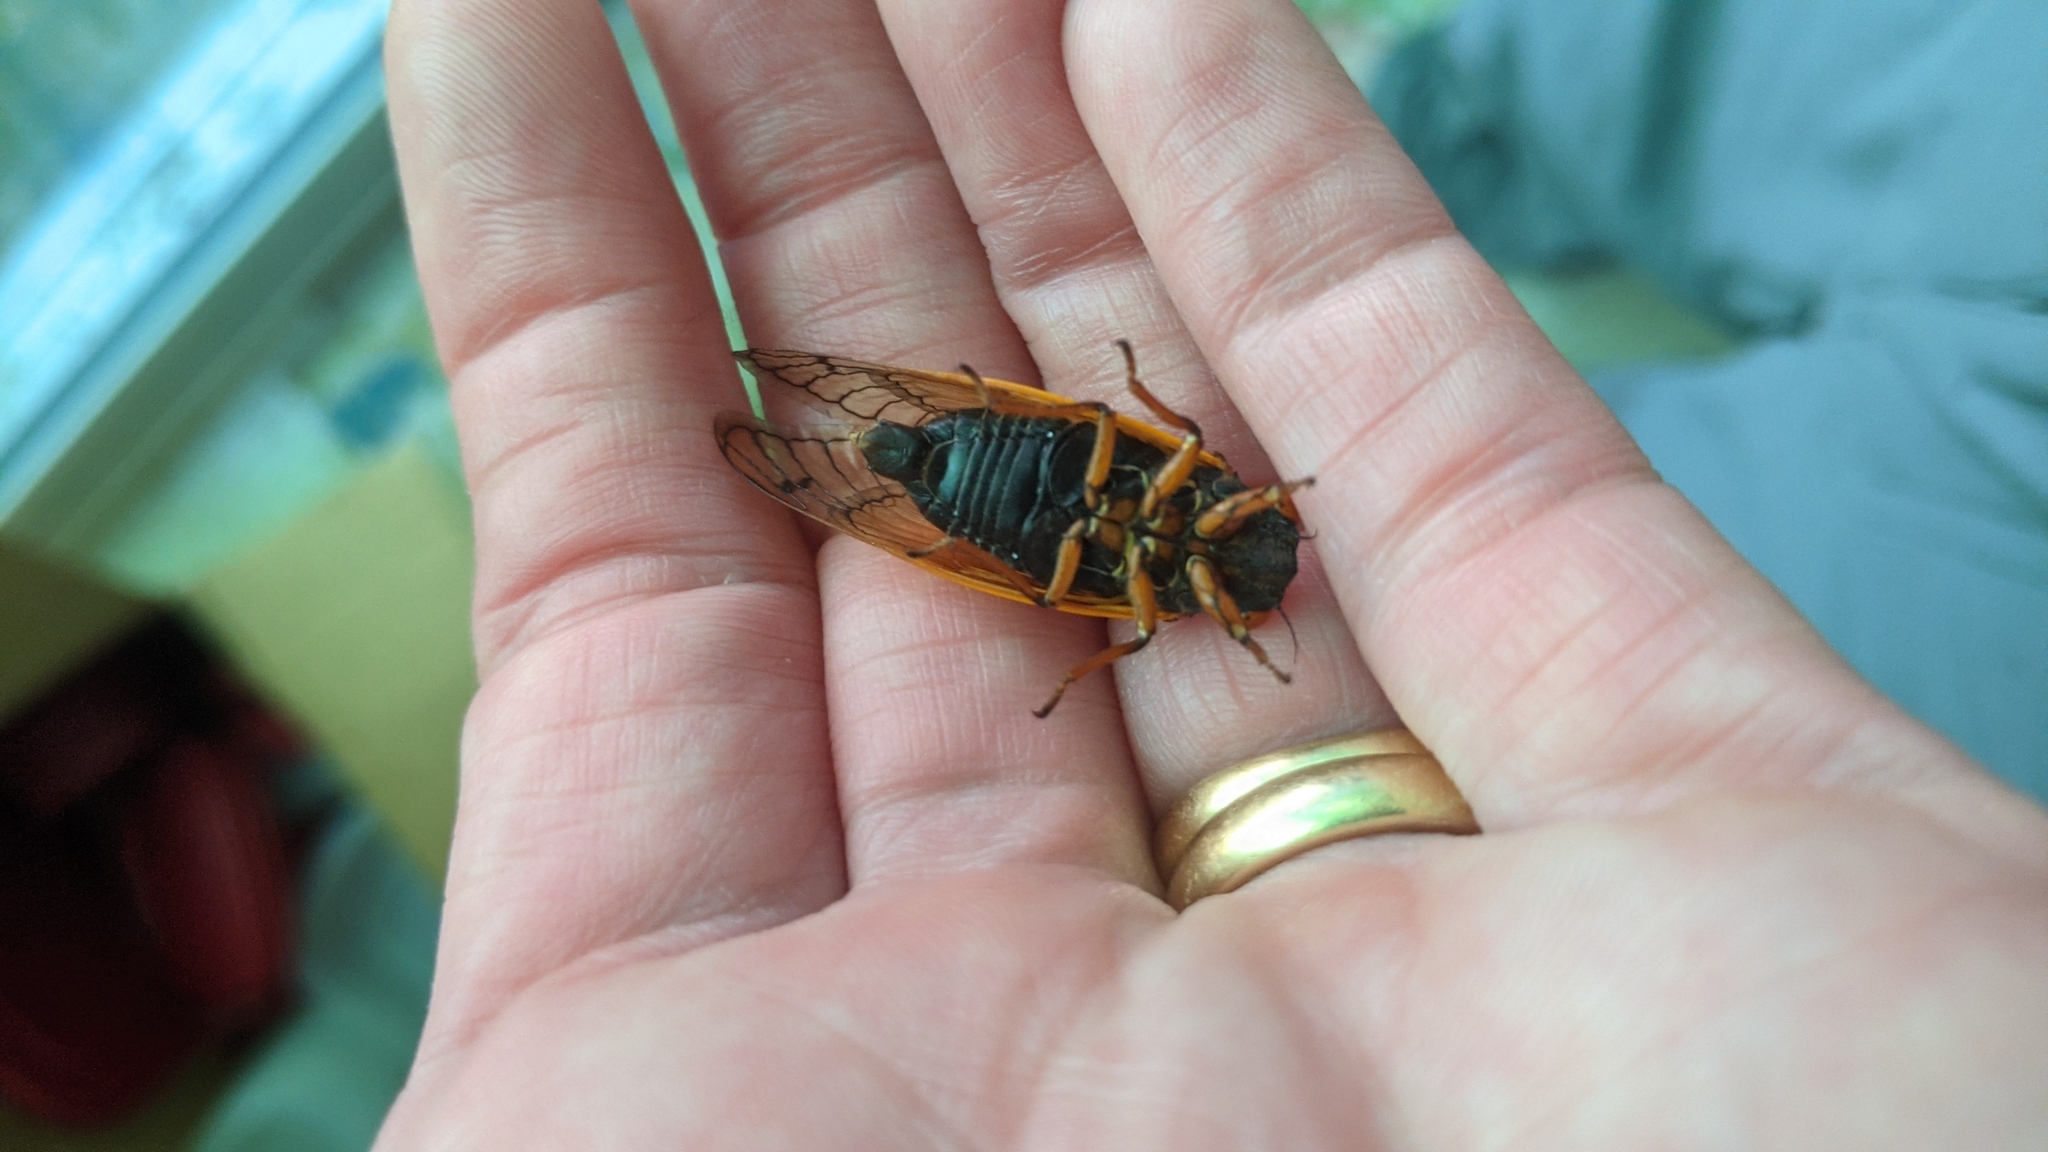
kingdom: Animalia
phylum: Arthropoda
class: Insecta
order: Hemiptera
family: Cicadidae
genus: Magicicada
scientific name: Magicicada cassini
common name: Cassin's 17-year cicada
